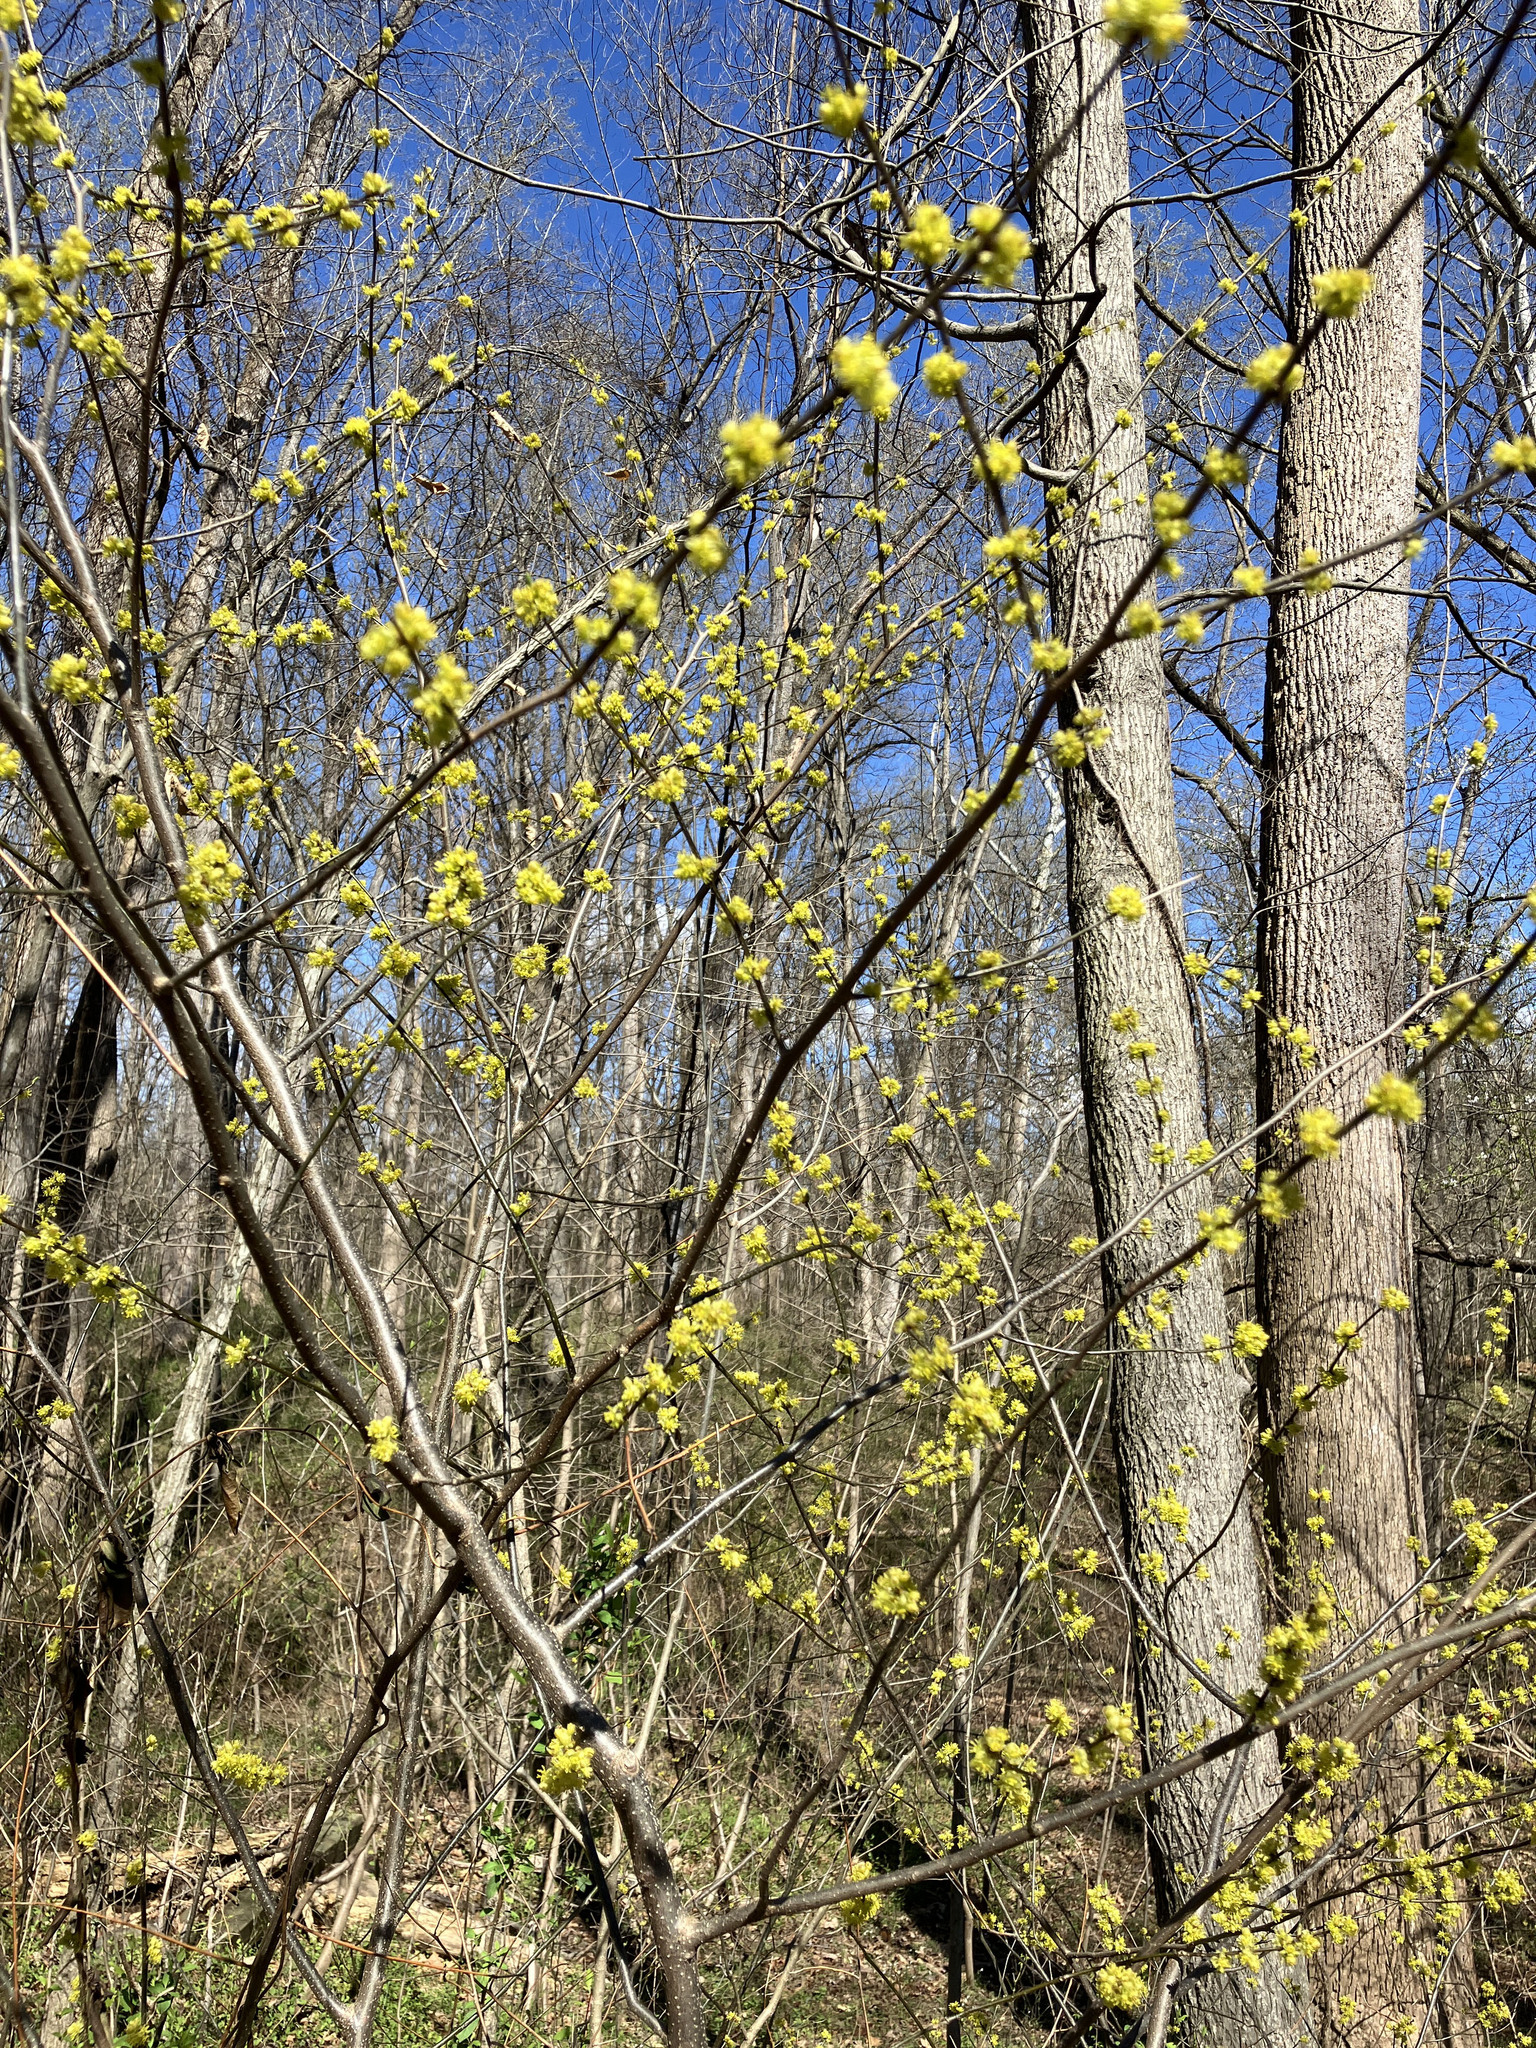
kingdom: Plantae
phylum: Tracheophyta
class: Magnoliopsida
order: Laurales
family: Lauraceae
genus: Lindera
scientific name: Lindera benzoin
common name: Spicebush
